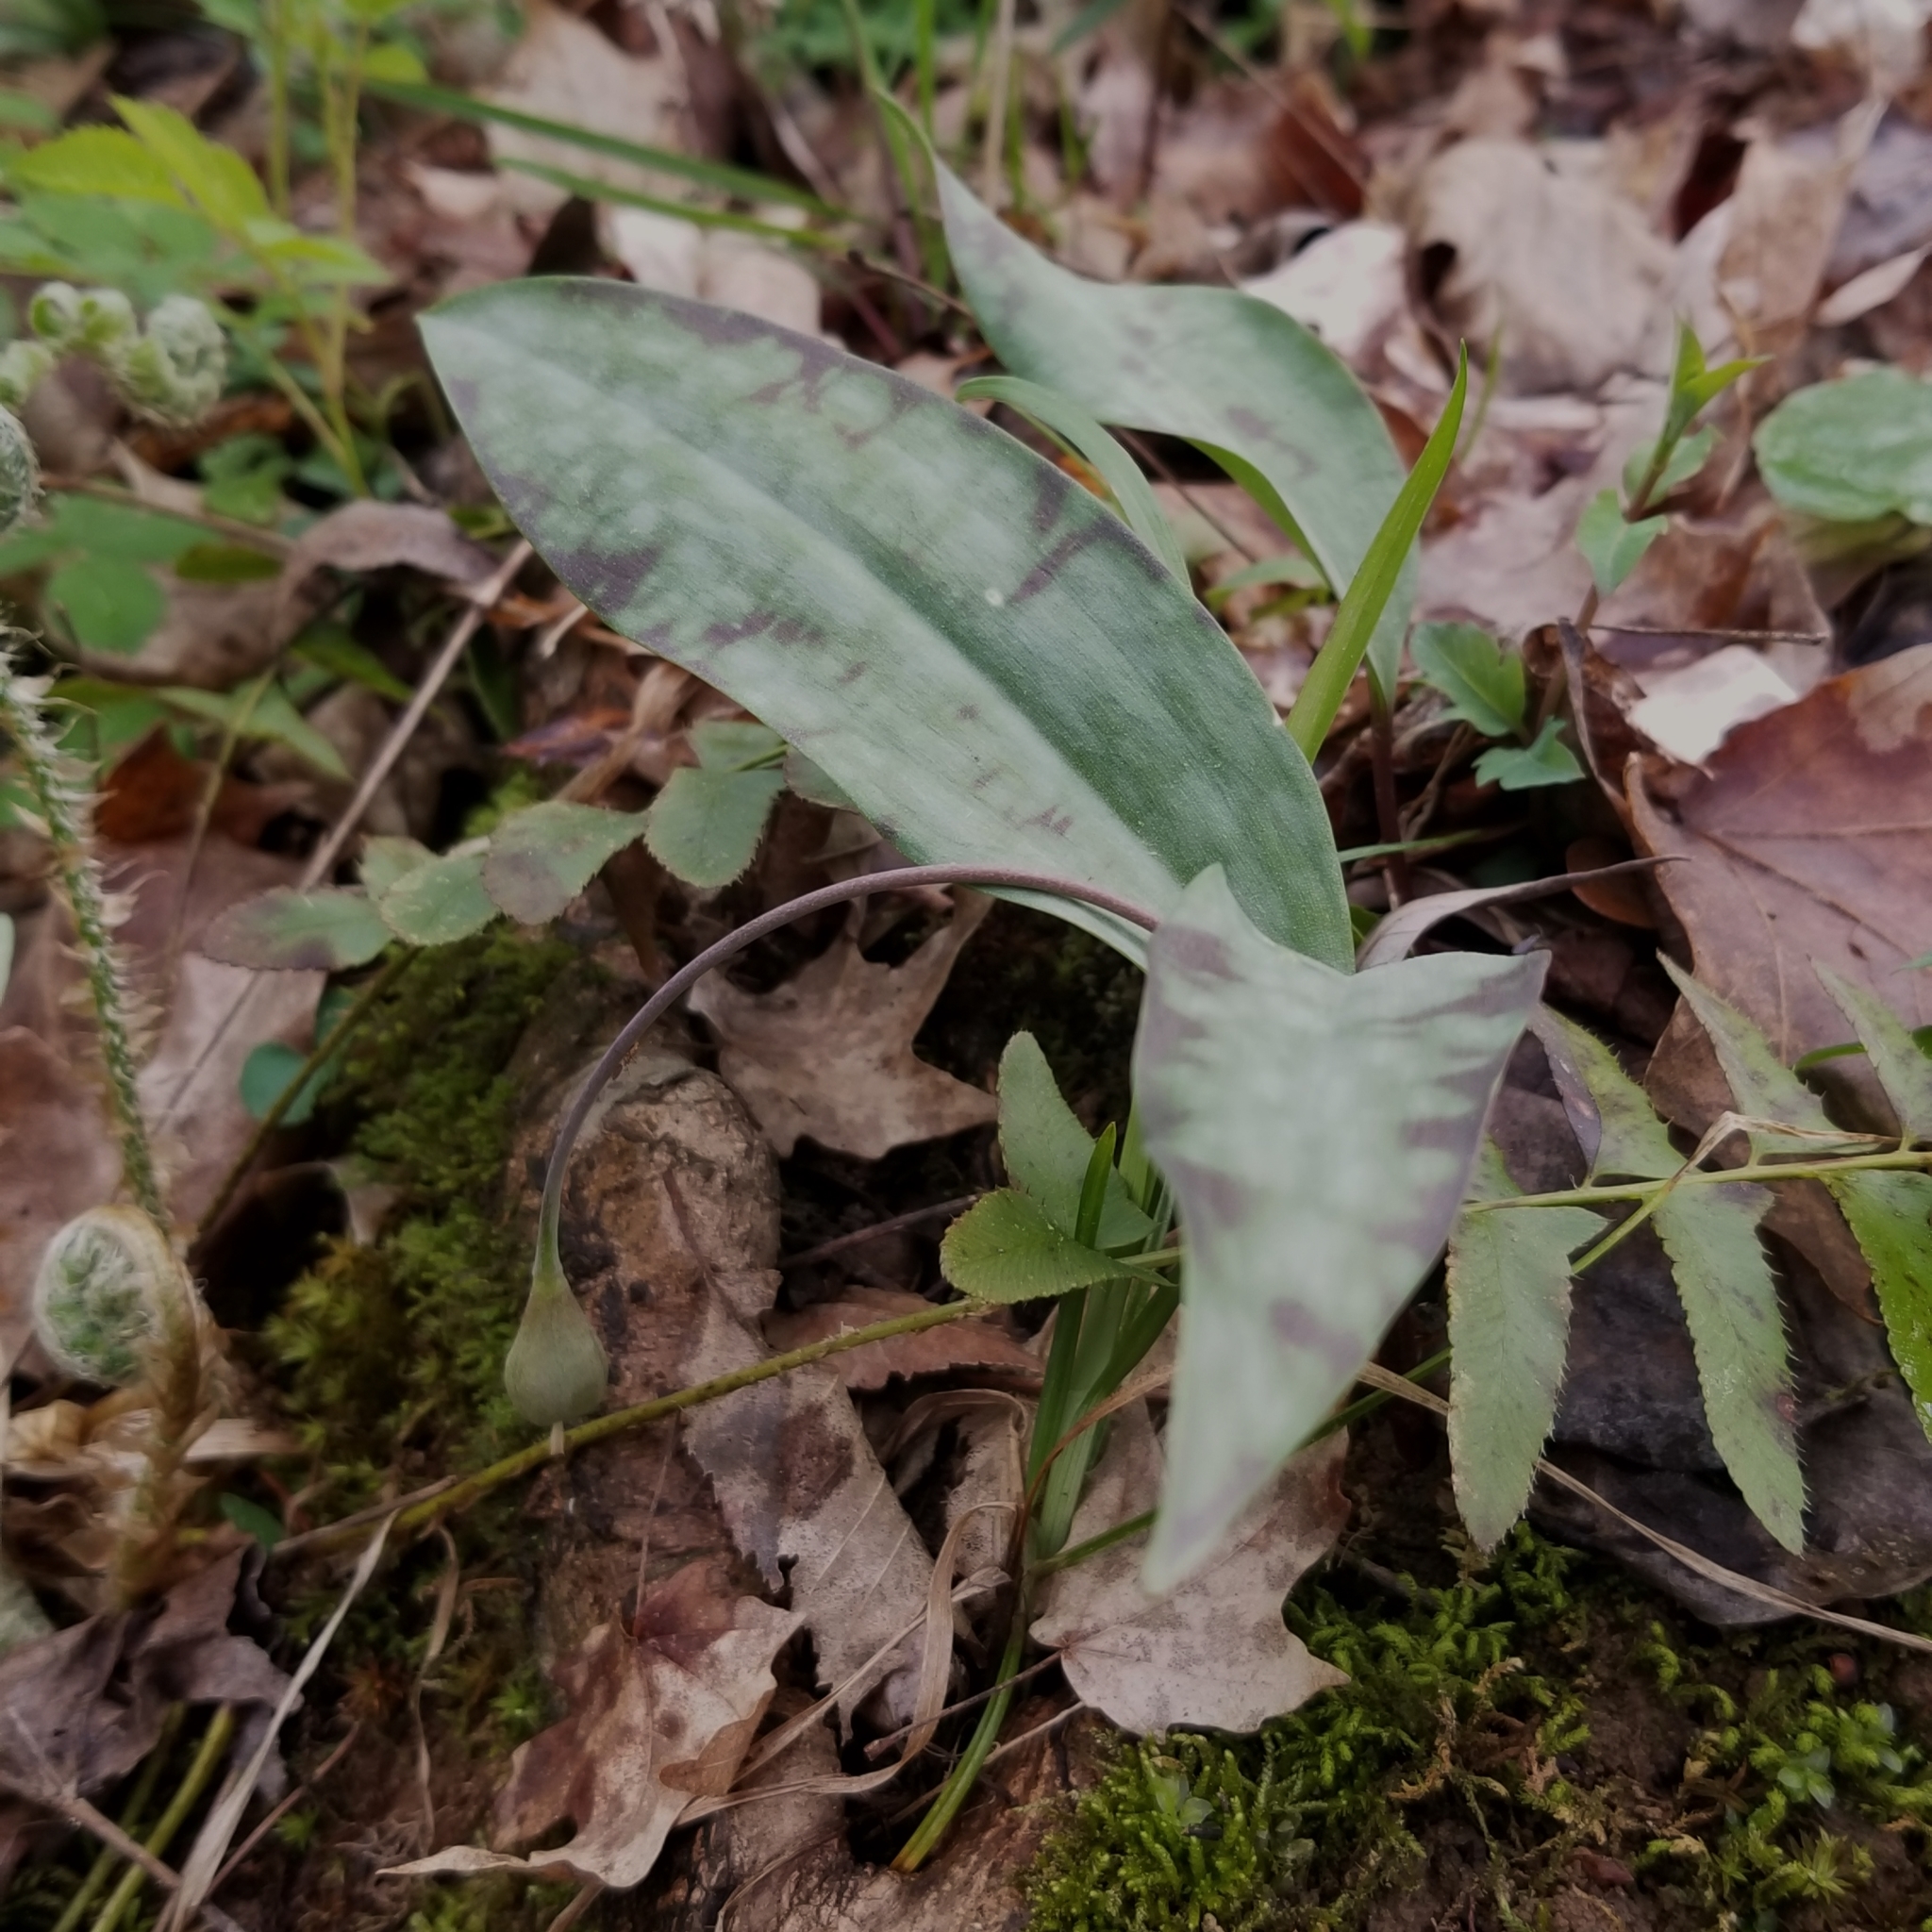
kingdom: Plantae
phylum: Tracheophyta
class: Liliopsida
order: Liliales
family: Liliaceae
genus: Erythronium
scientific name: Erythronium umbilicatum
